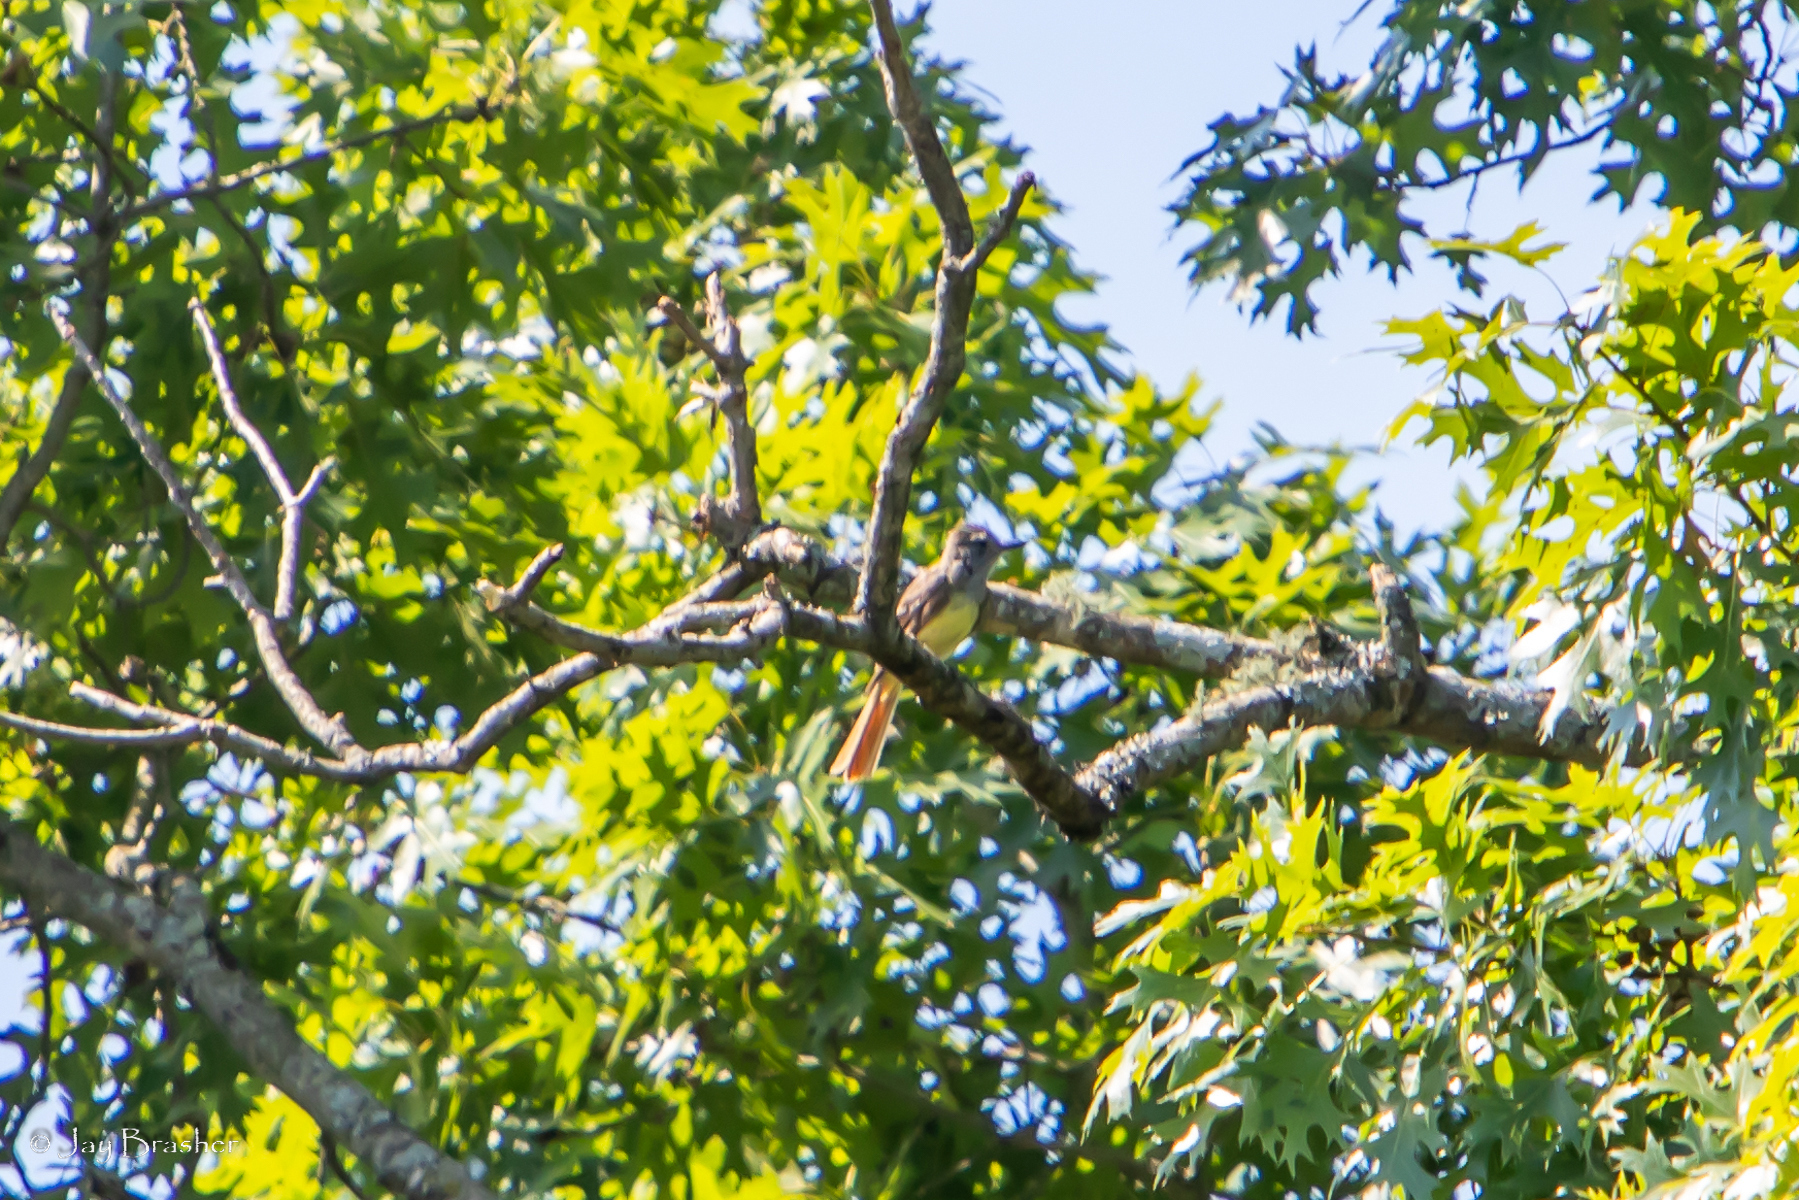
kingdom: Animalia
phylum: Chordata
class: Aves
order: Passeriformes
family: Tyrannidae
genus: Myiarchus
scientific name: Myiarchus crinitus
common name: Great crested flycatcher
